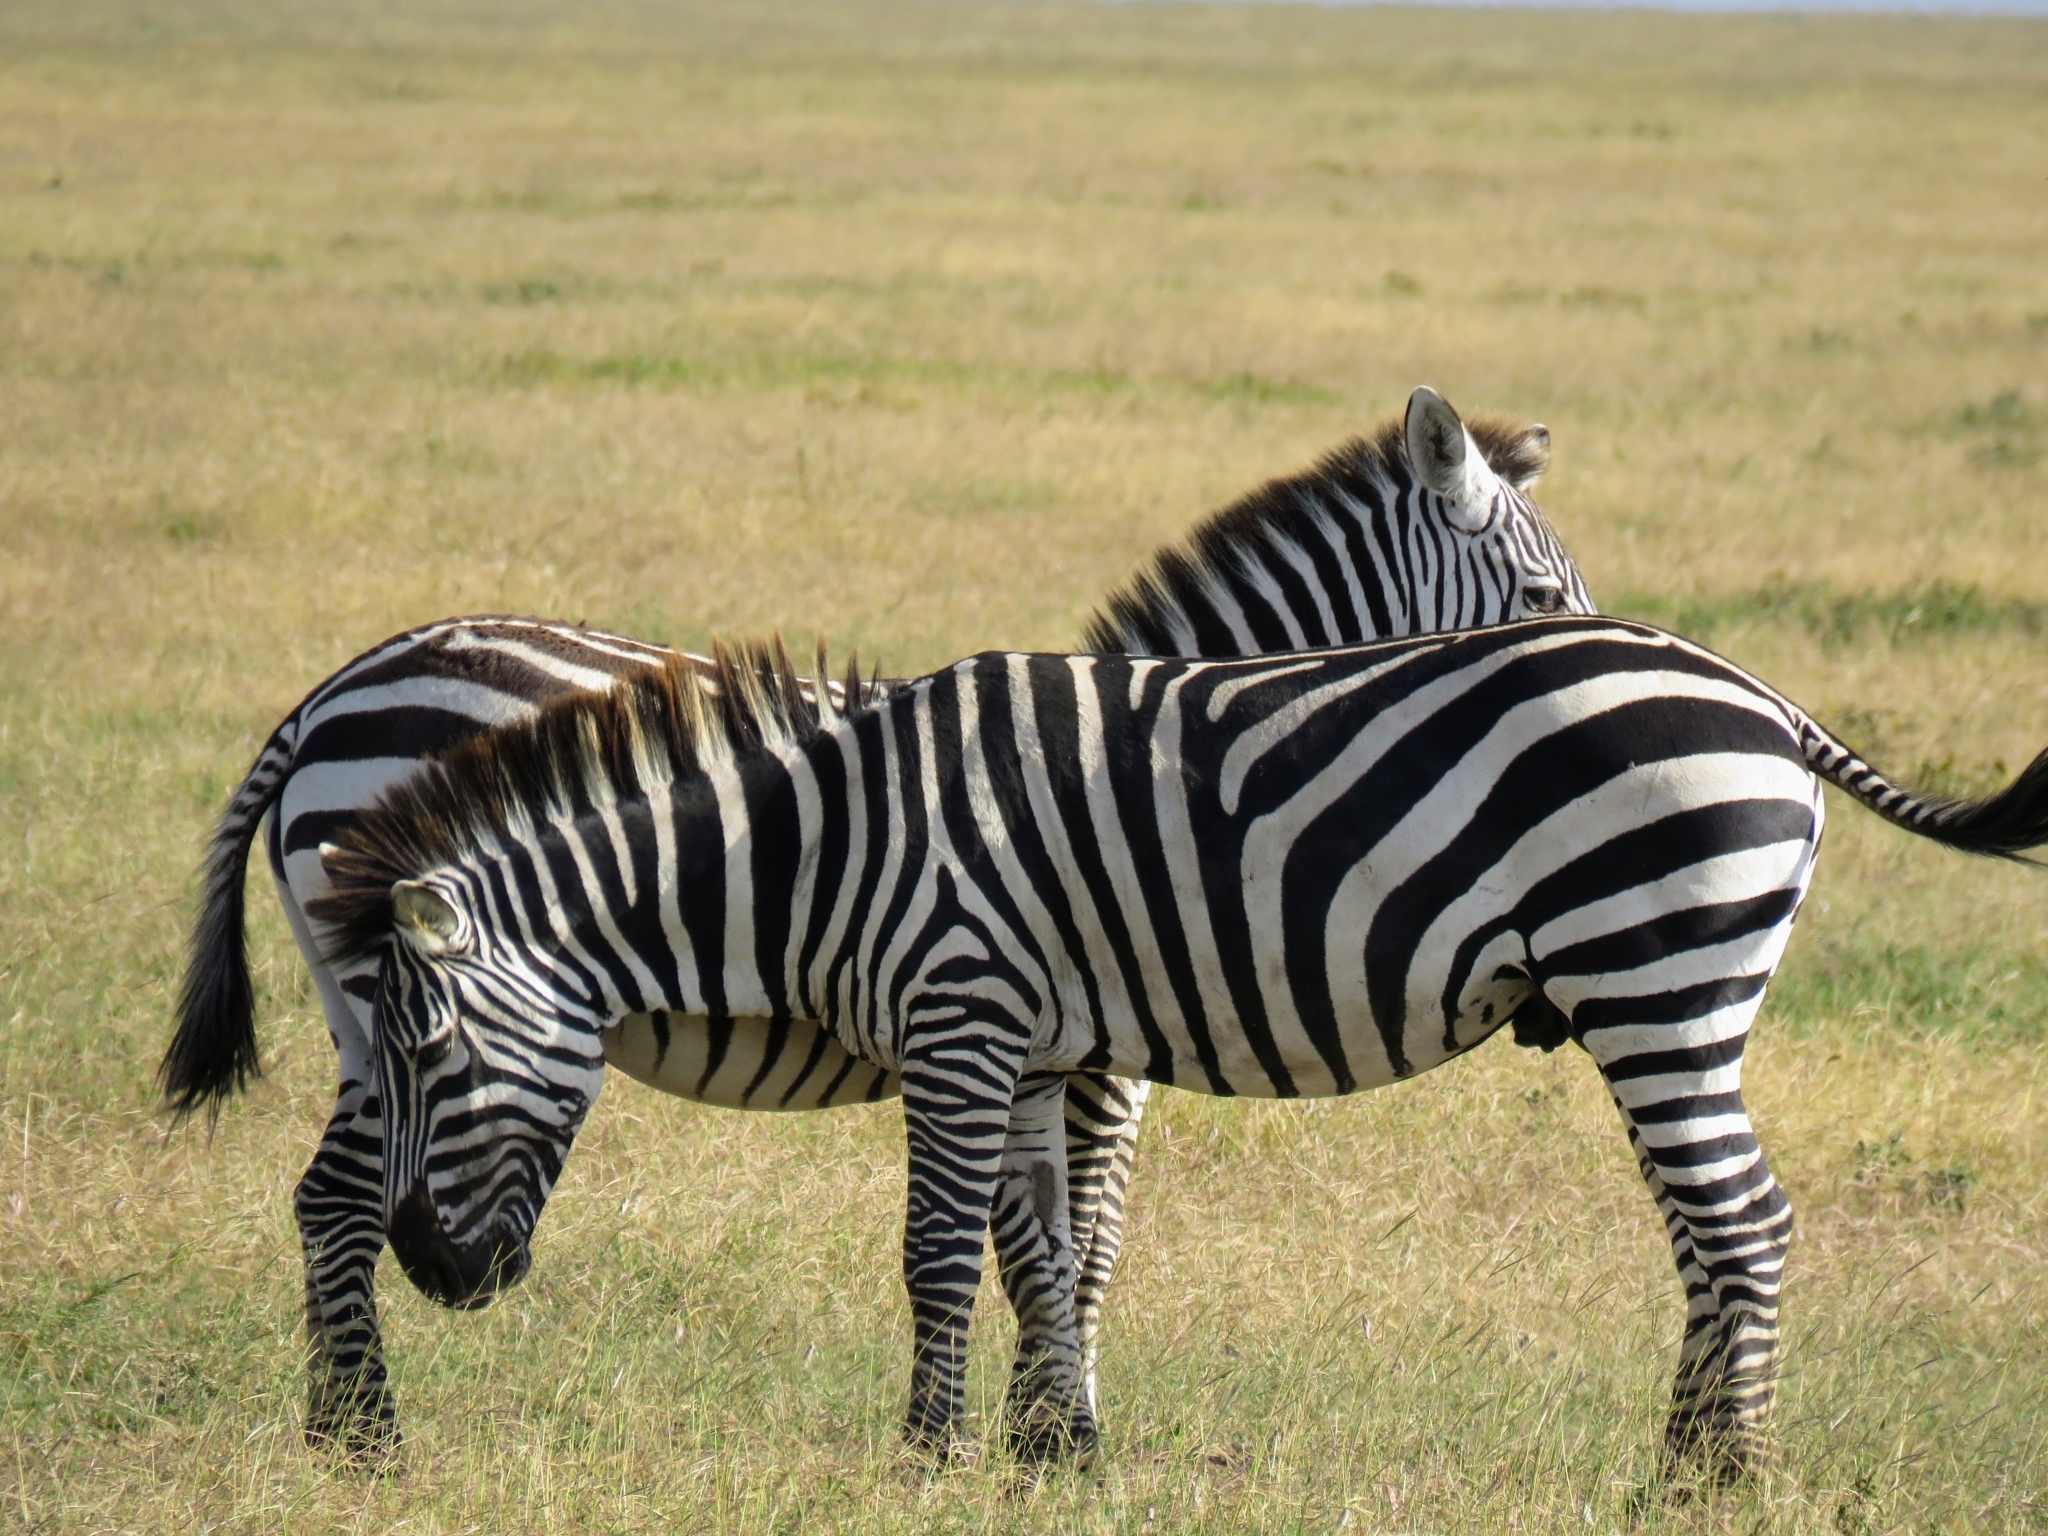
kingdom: Animalia
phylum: Chordata
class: Mammalia
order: Perissodactyla
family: Equidae
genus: Equus
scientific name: Equus quagga
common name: Plains zebra
